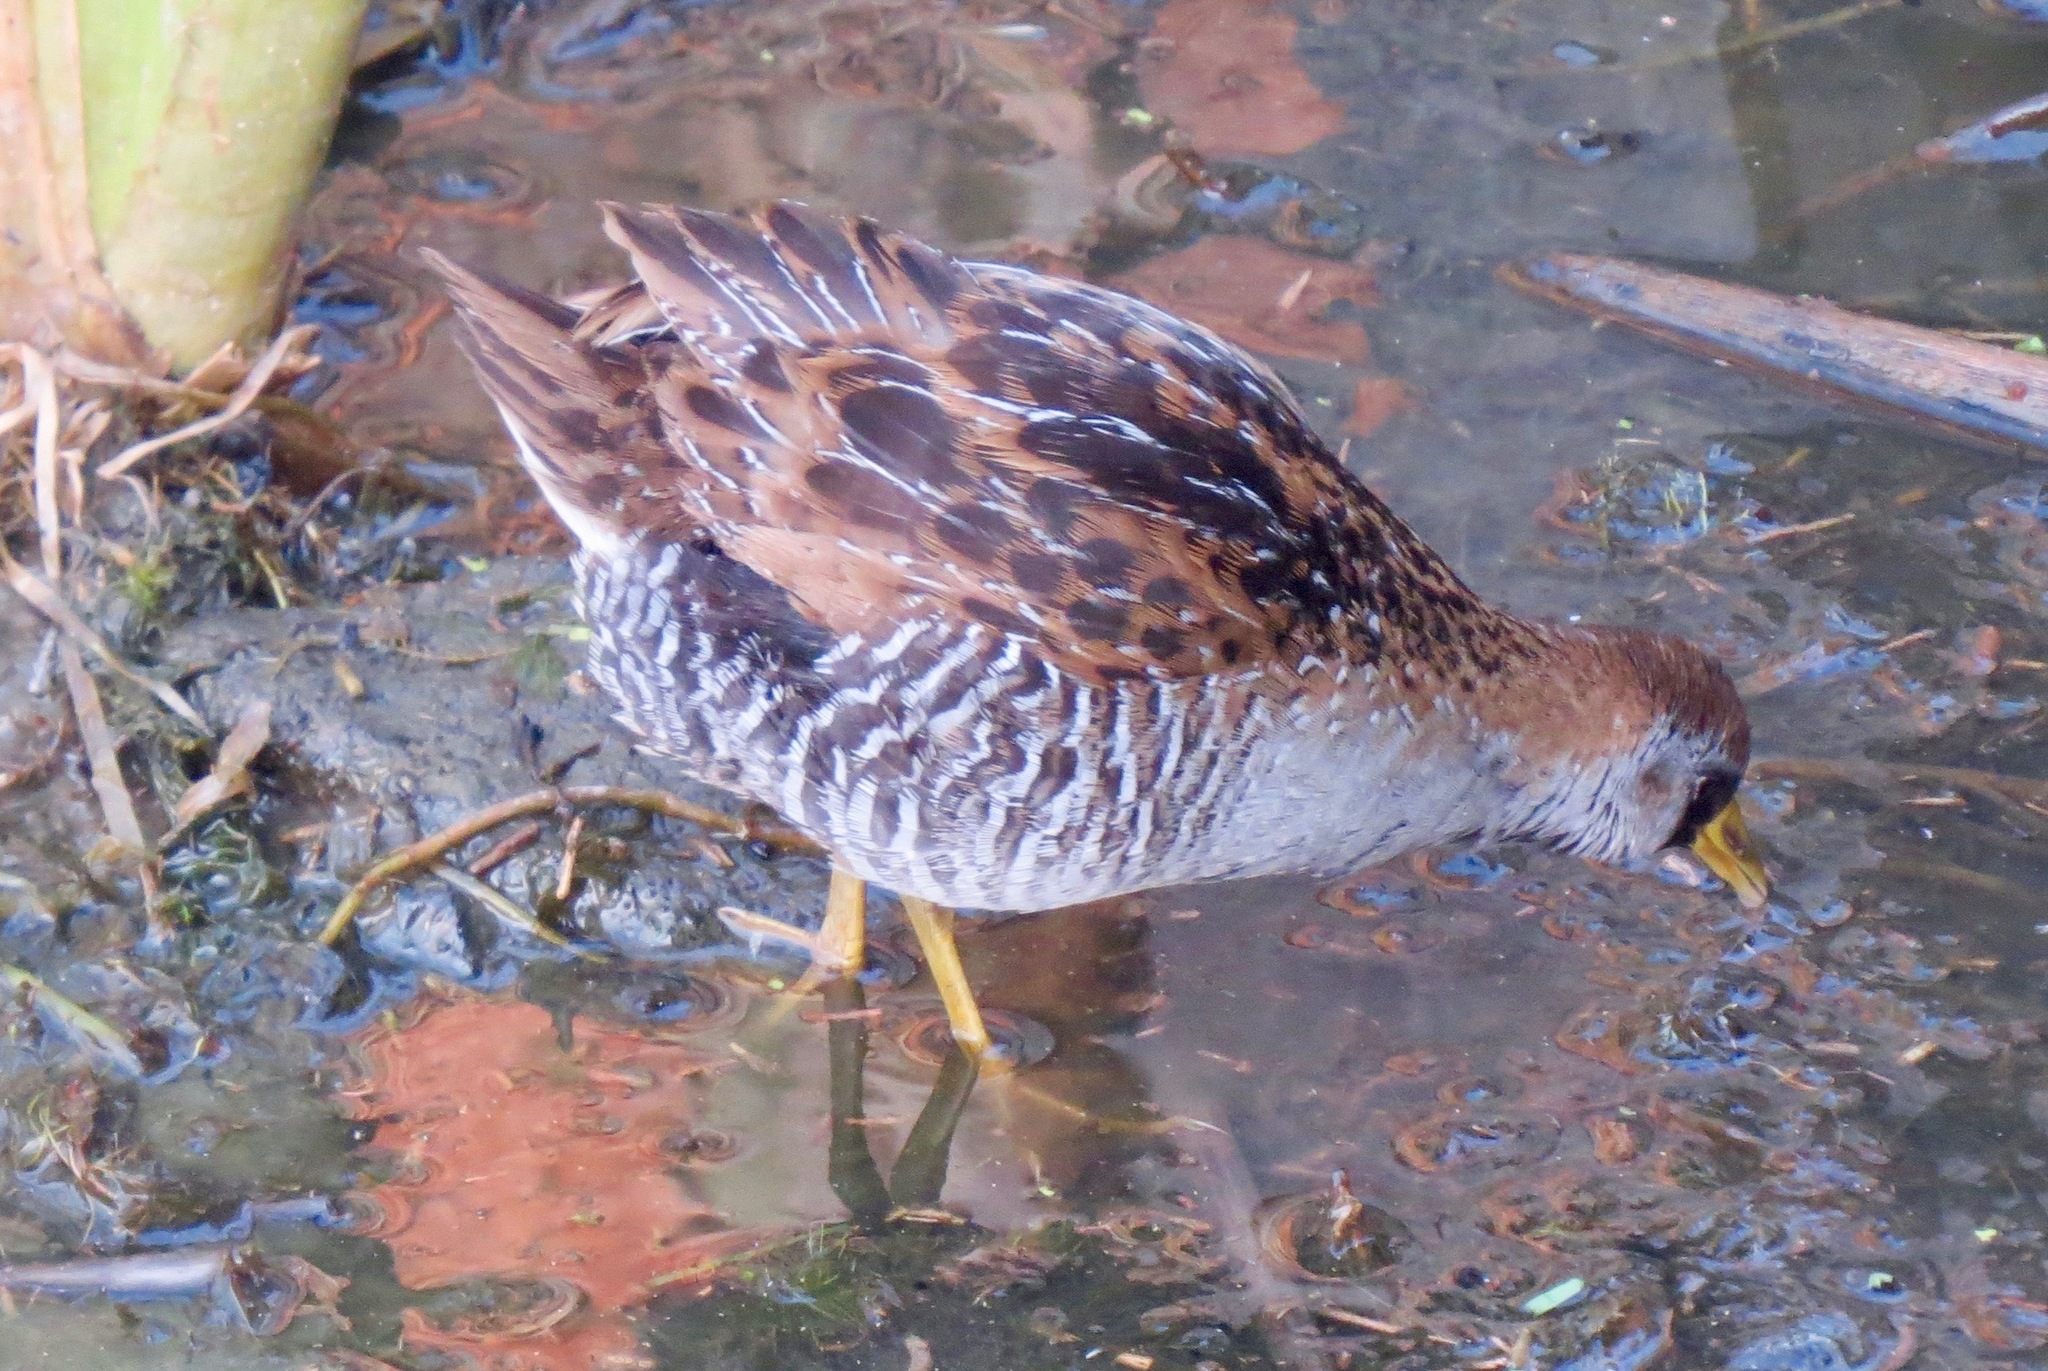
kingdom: Animalia
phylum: Chordata
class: Aves
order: Gruiformes
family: Rallidae
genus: Porzana
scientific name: Porzana carolina
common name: Sora
